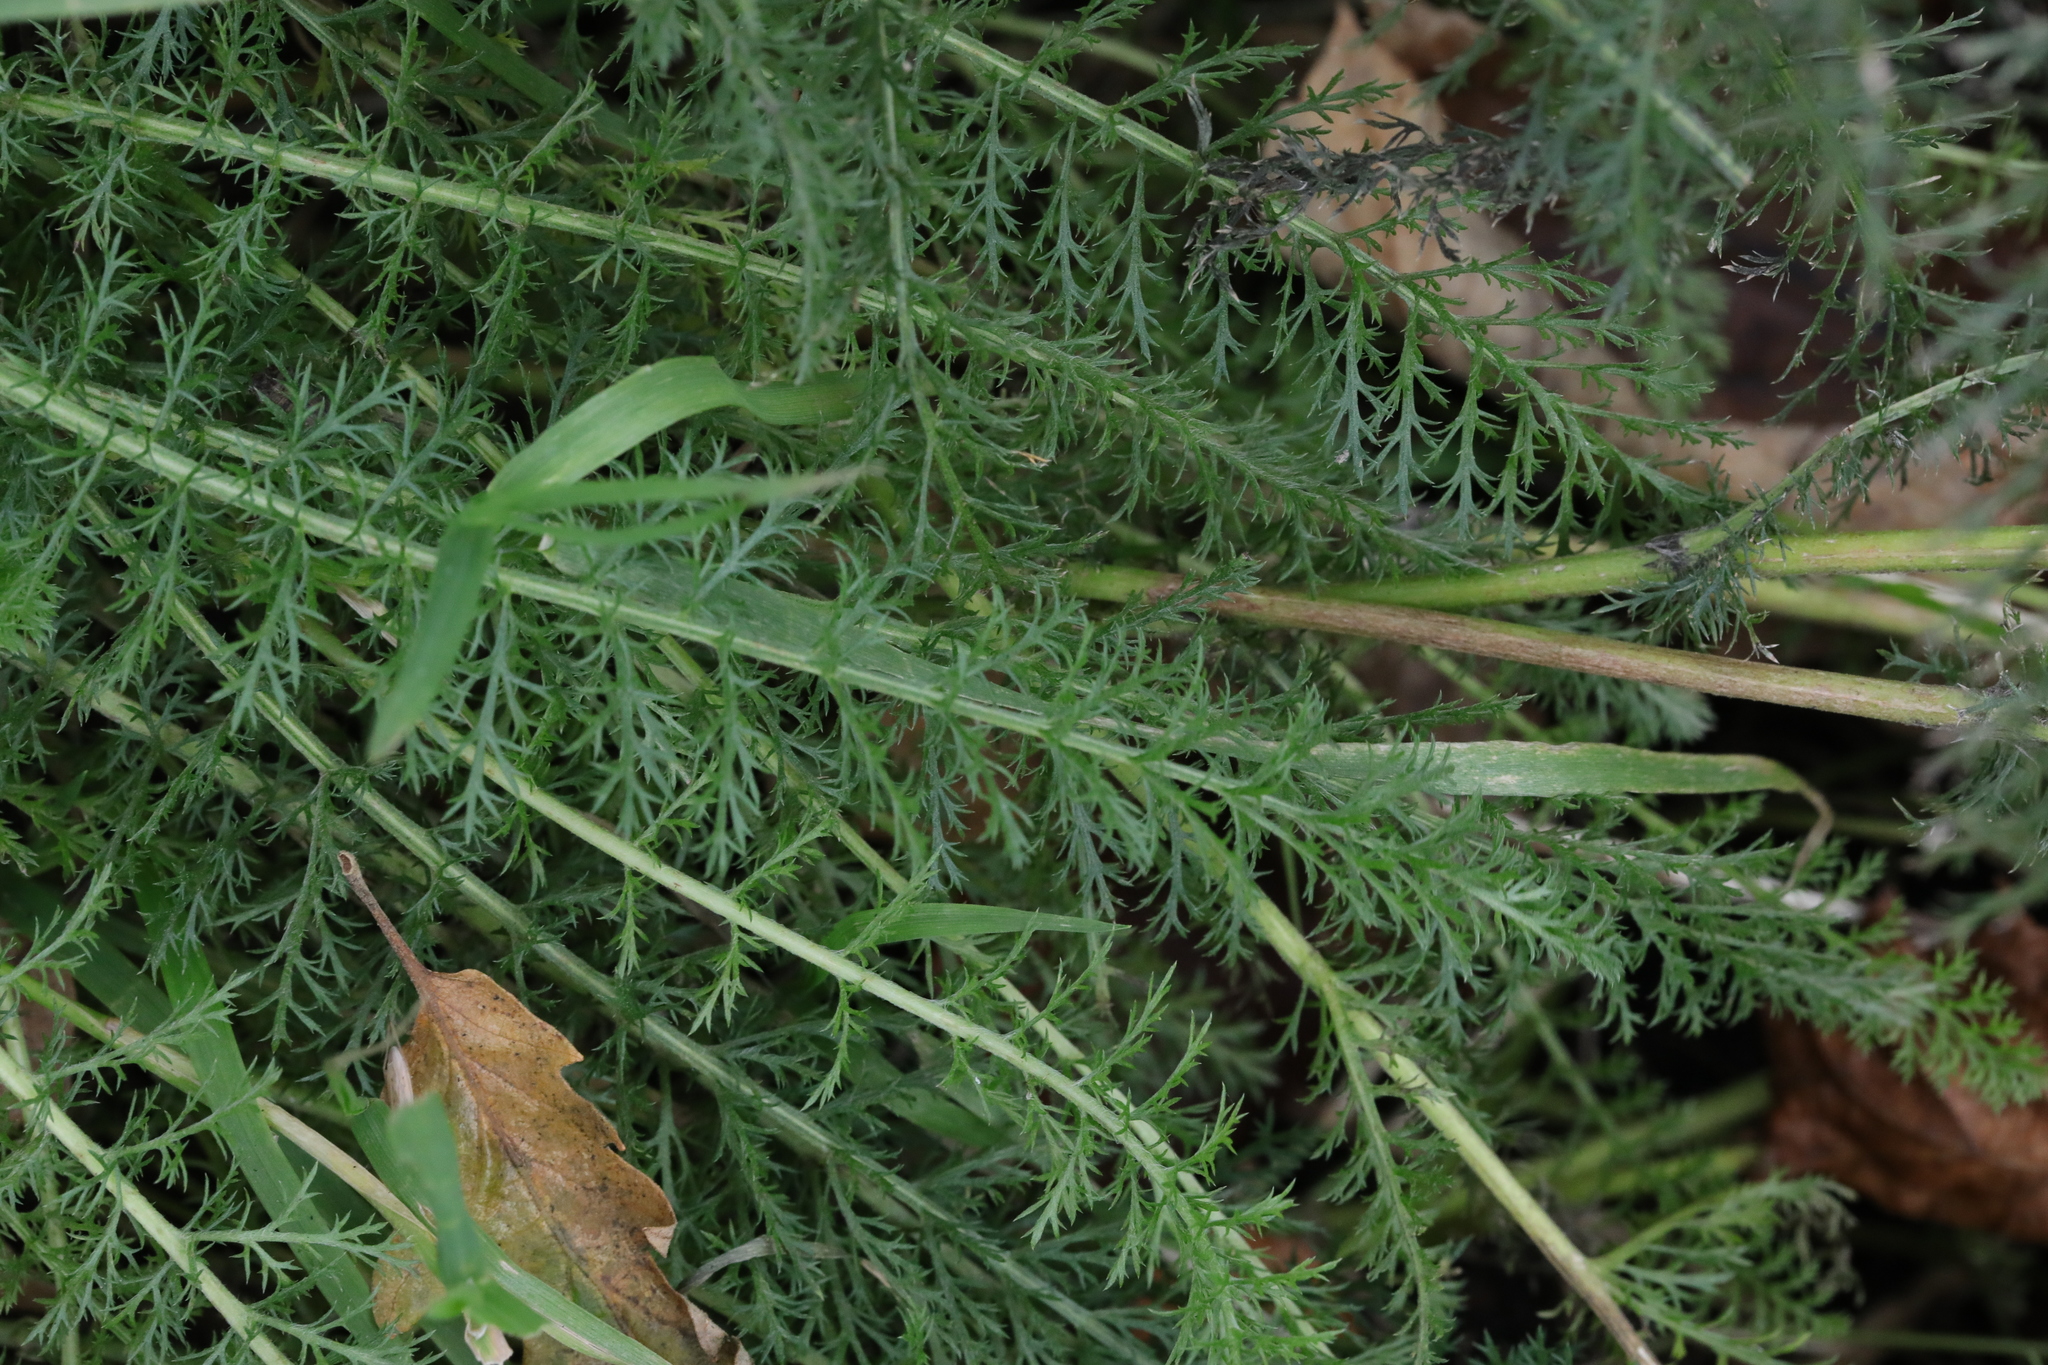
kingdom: Plantae
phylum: Tracheophyta
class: Magnoliopsida
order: Asterales
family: Asteraceae
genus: Achillea
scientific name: Achillea millefolium
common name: Yarrow
